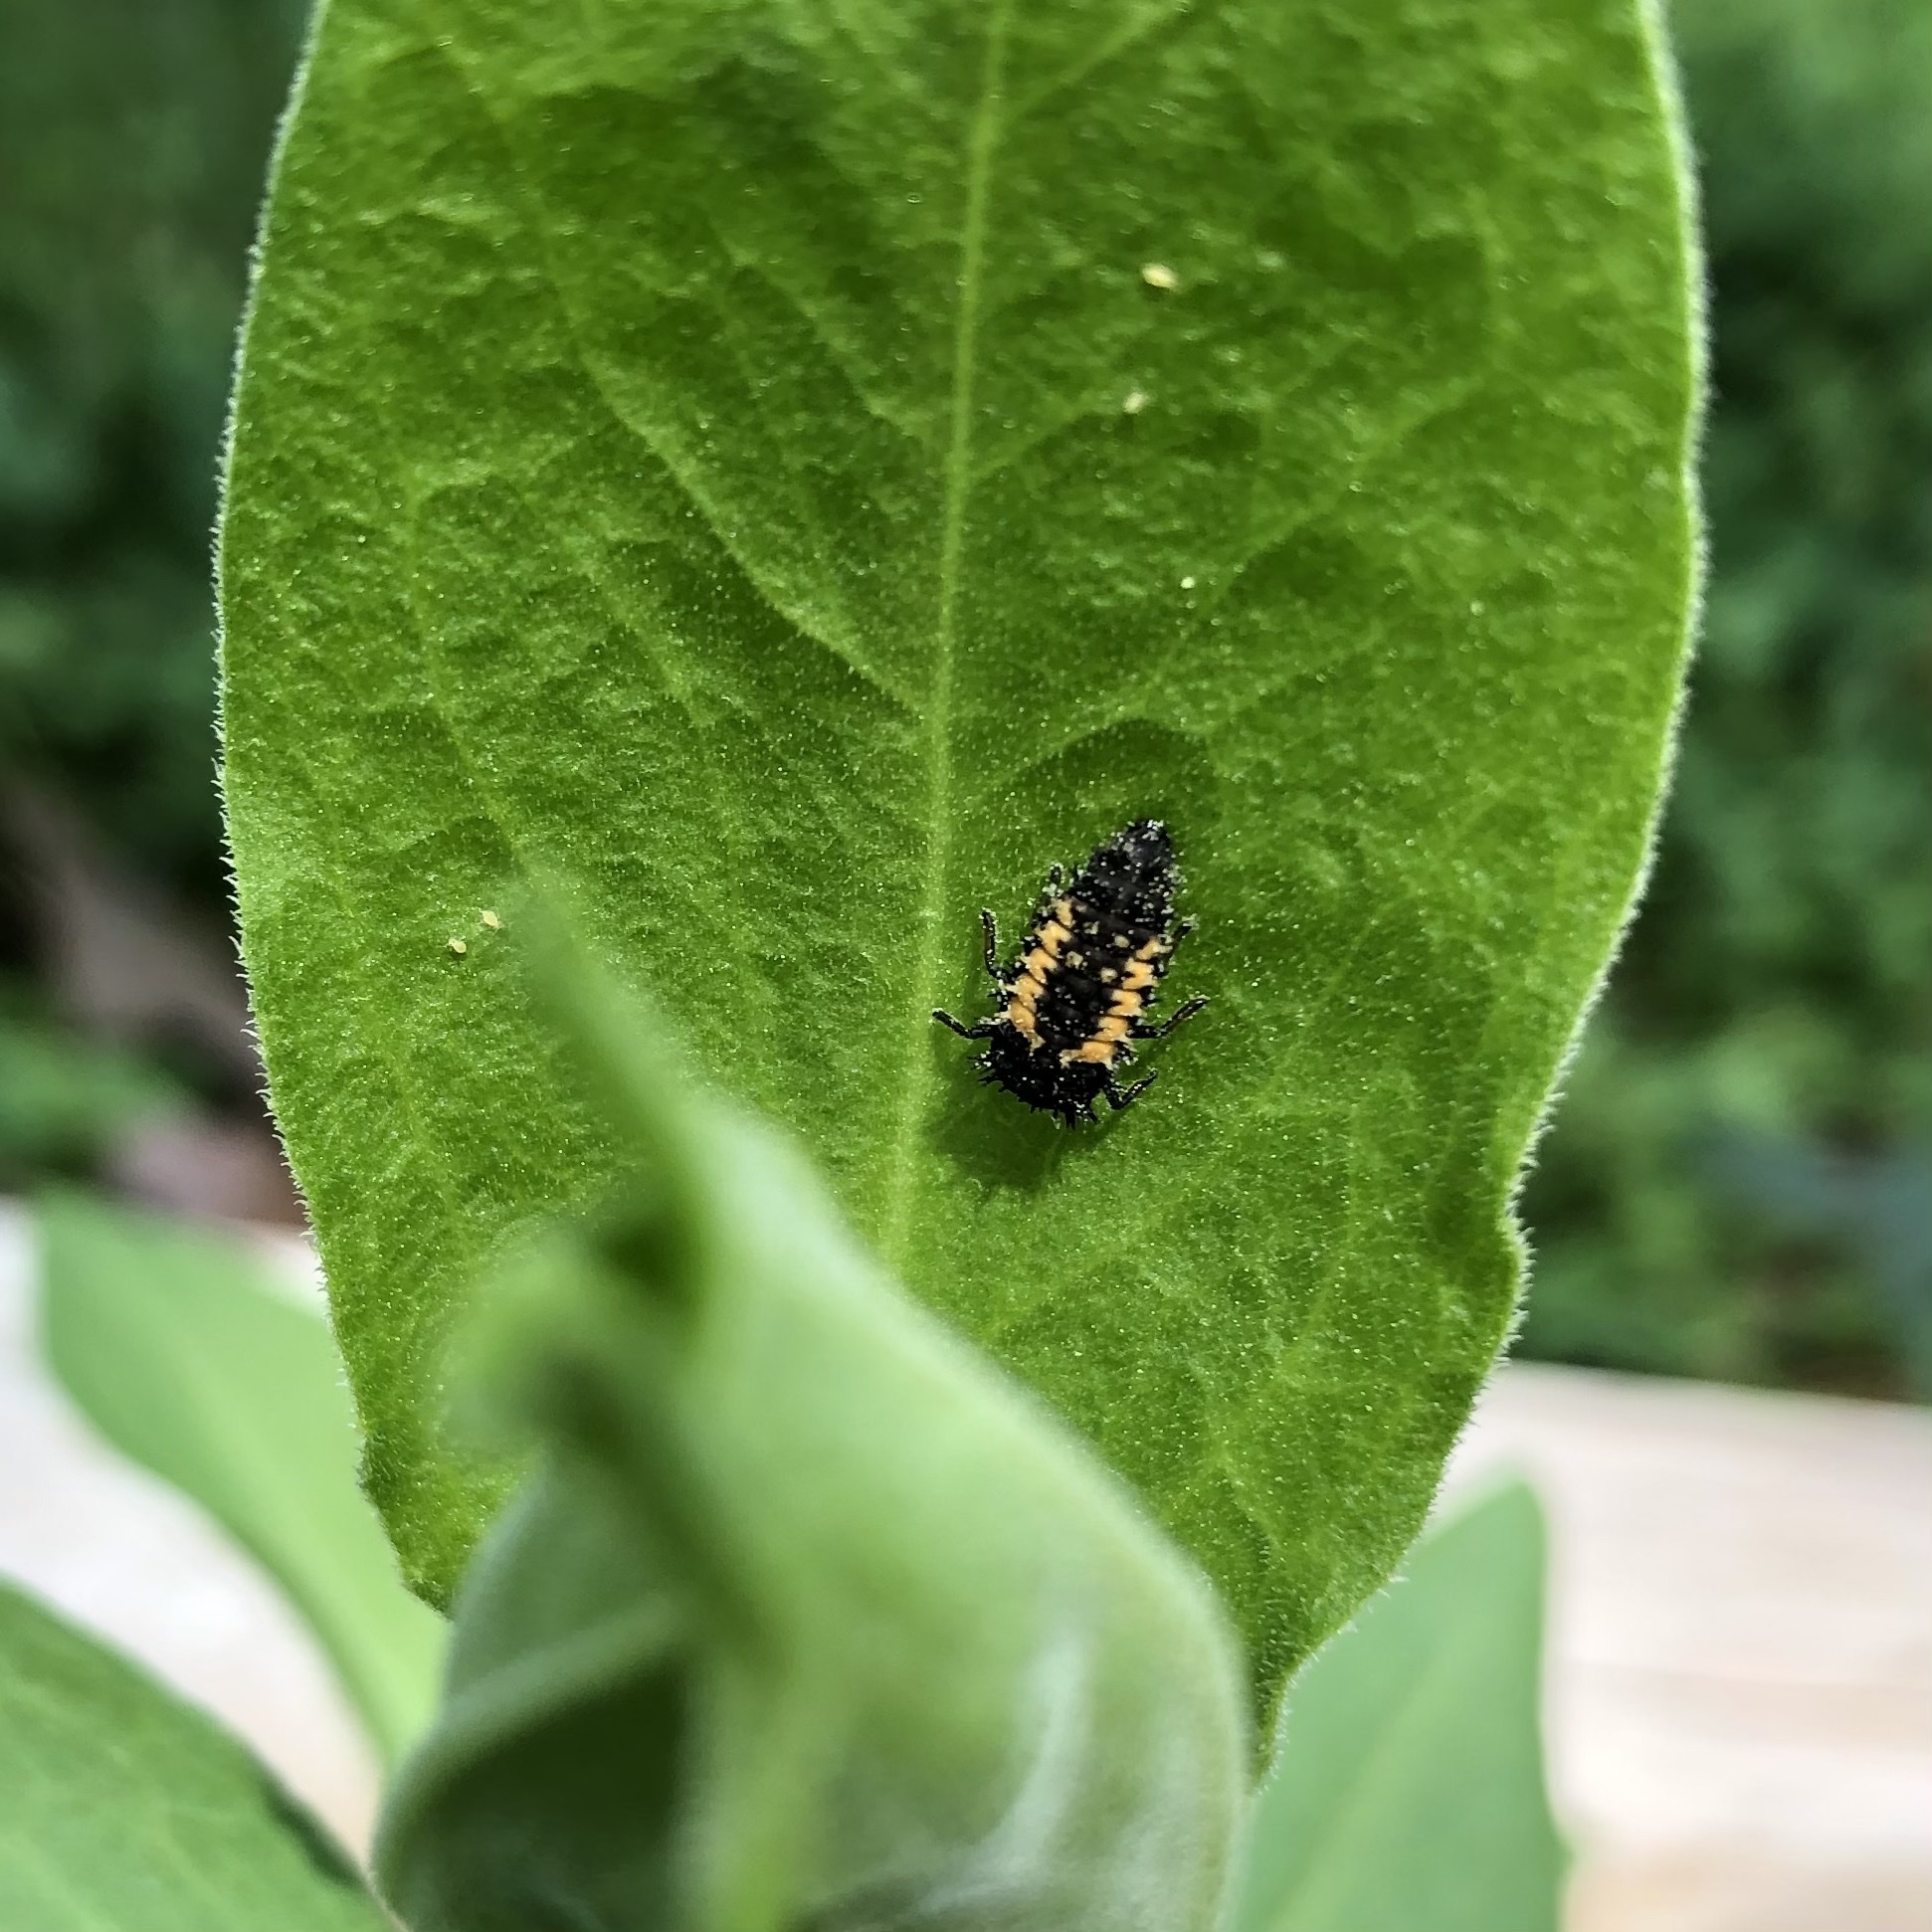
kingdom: Animalia
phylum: Arthropoda
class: Insecta
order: Coleoptera
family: Coccinellidae
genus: Harmonia
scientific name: Harmonia axyridis
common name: Harlequin ladybird
